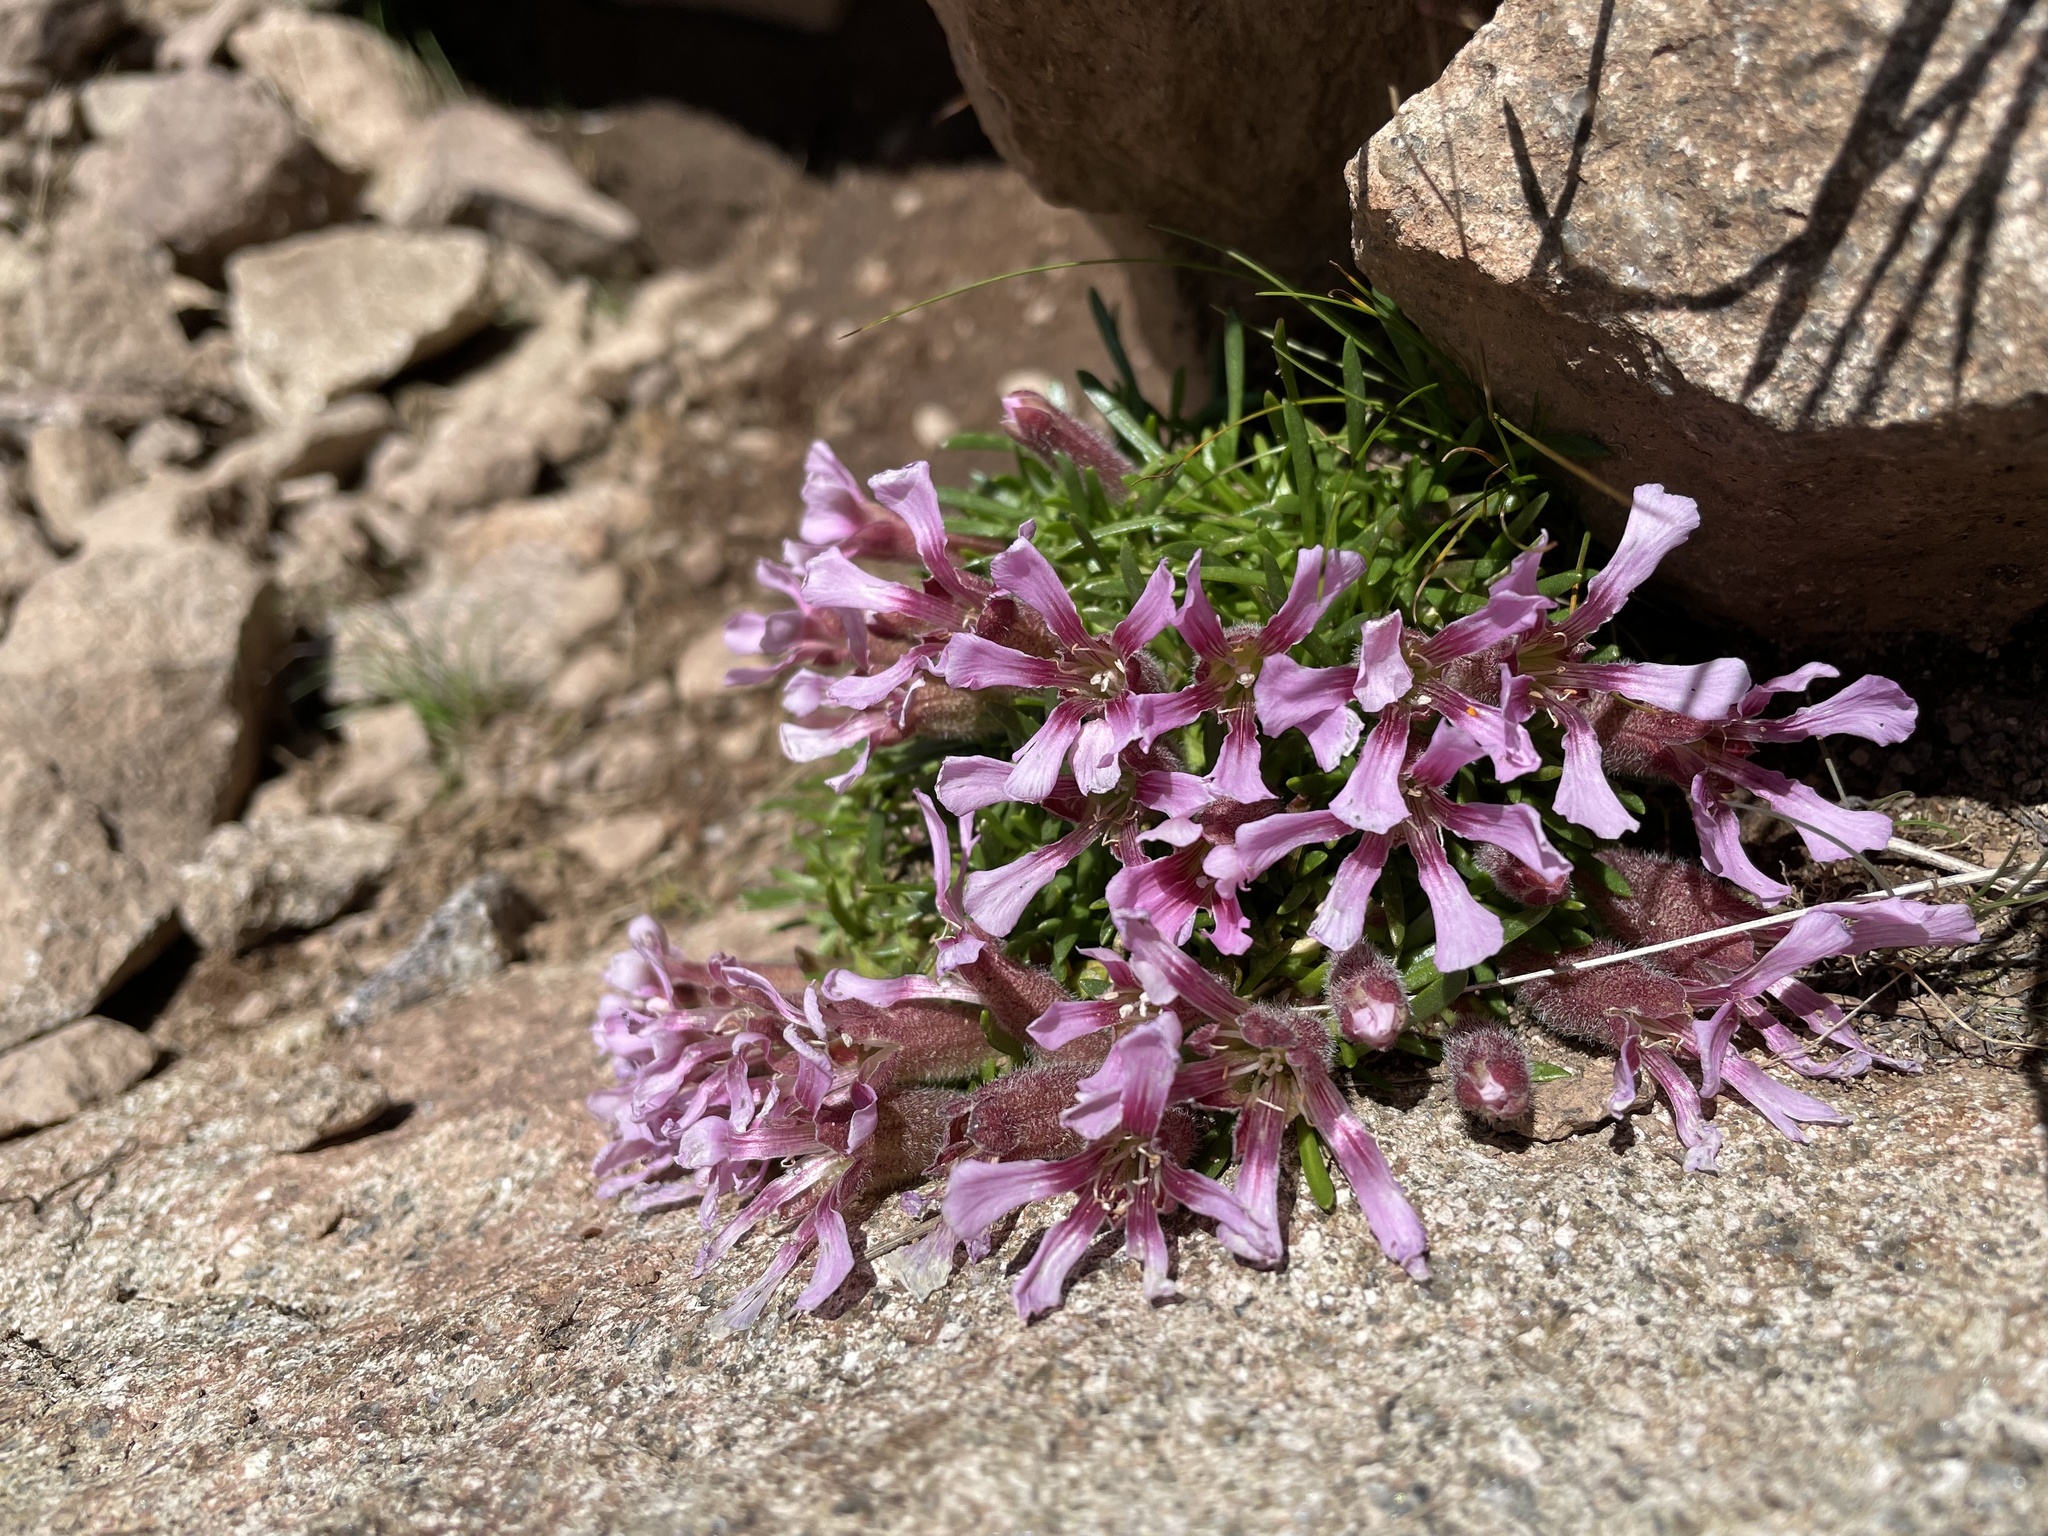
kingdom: Plantae
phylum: Tracheophyta
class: Magnoliopsida
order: Caryophyllales
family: Caryophyllaceae
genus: Saponaria
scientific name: Saponaria pumila
